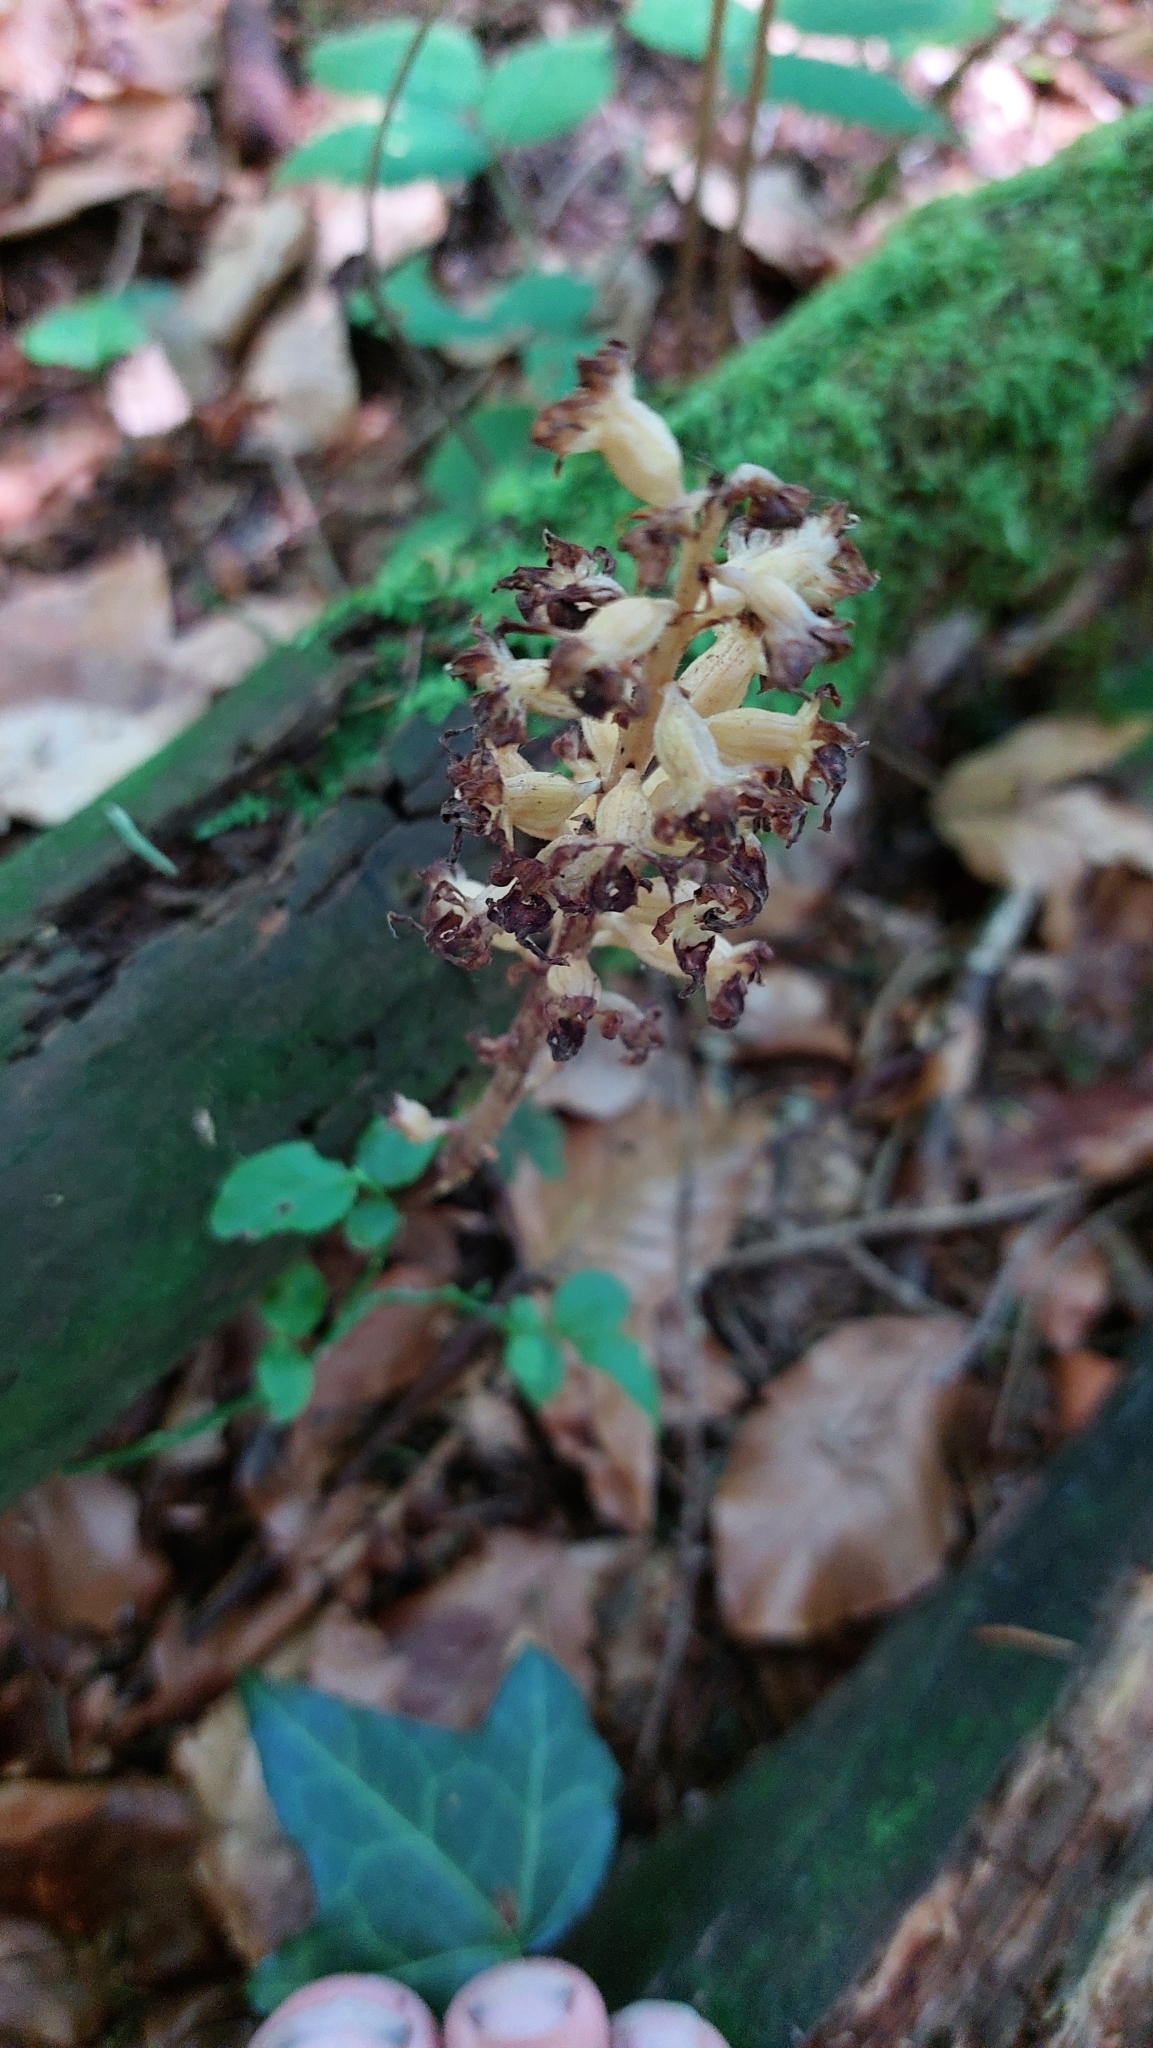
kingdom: Plantae
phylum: Tracheophyta
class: Liliopsida
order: Asparagales
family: Orchidaceae
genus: Neottia
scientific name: Neottia nidus-avis
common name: Bird's-nest orchid
